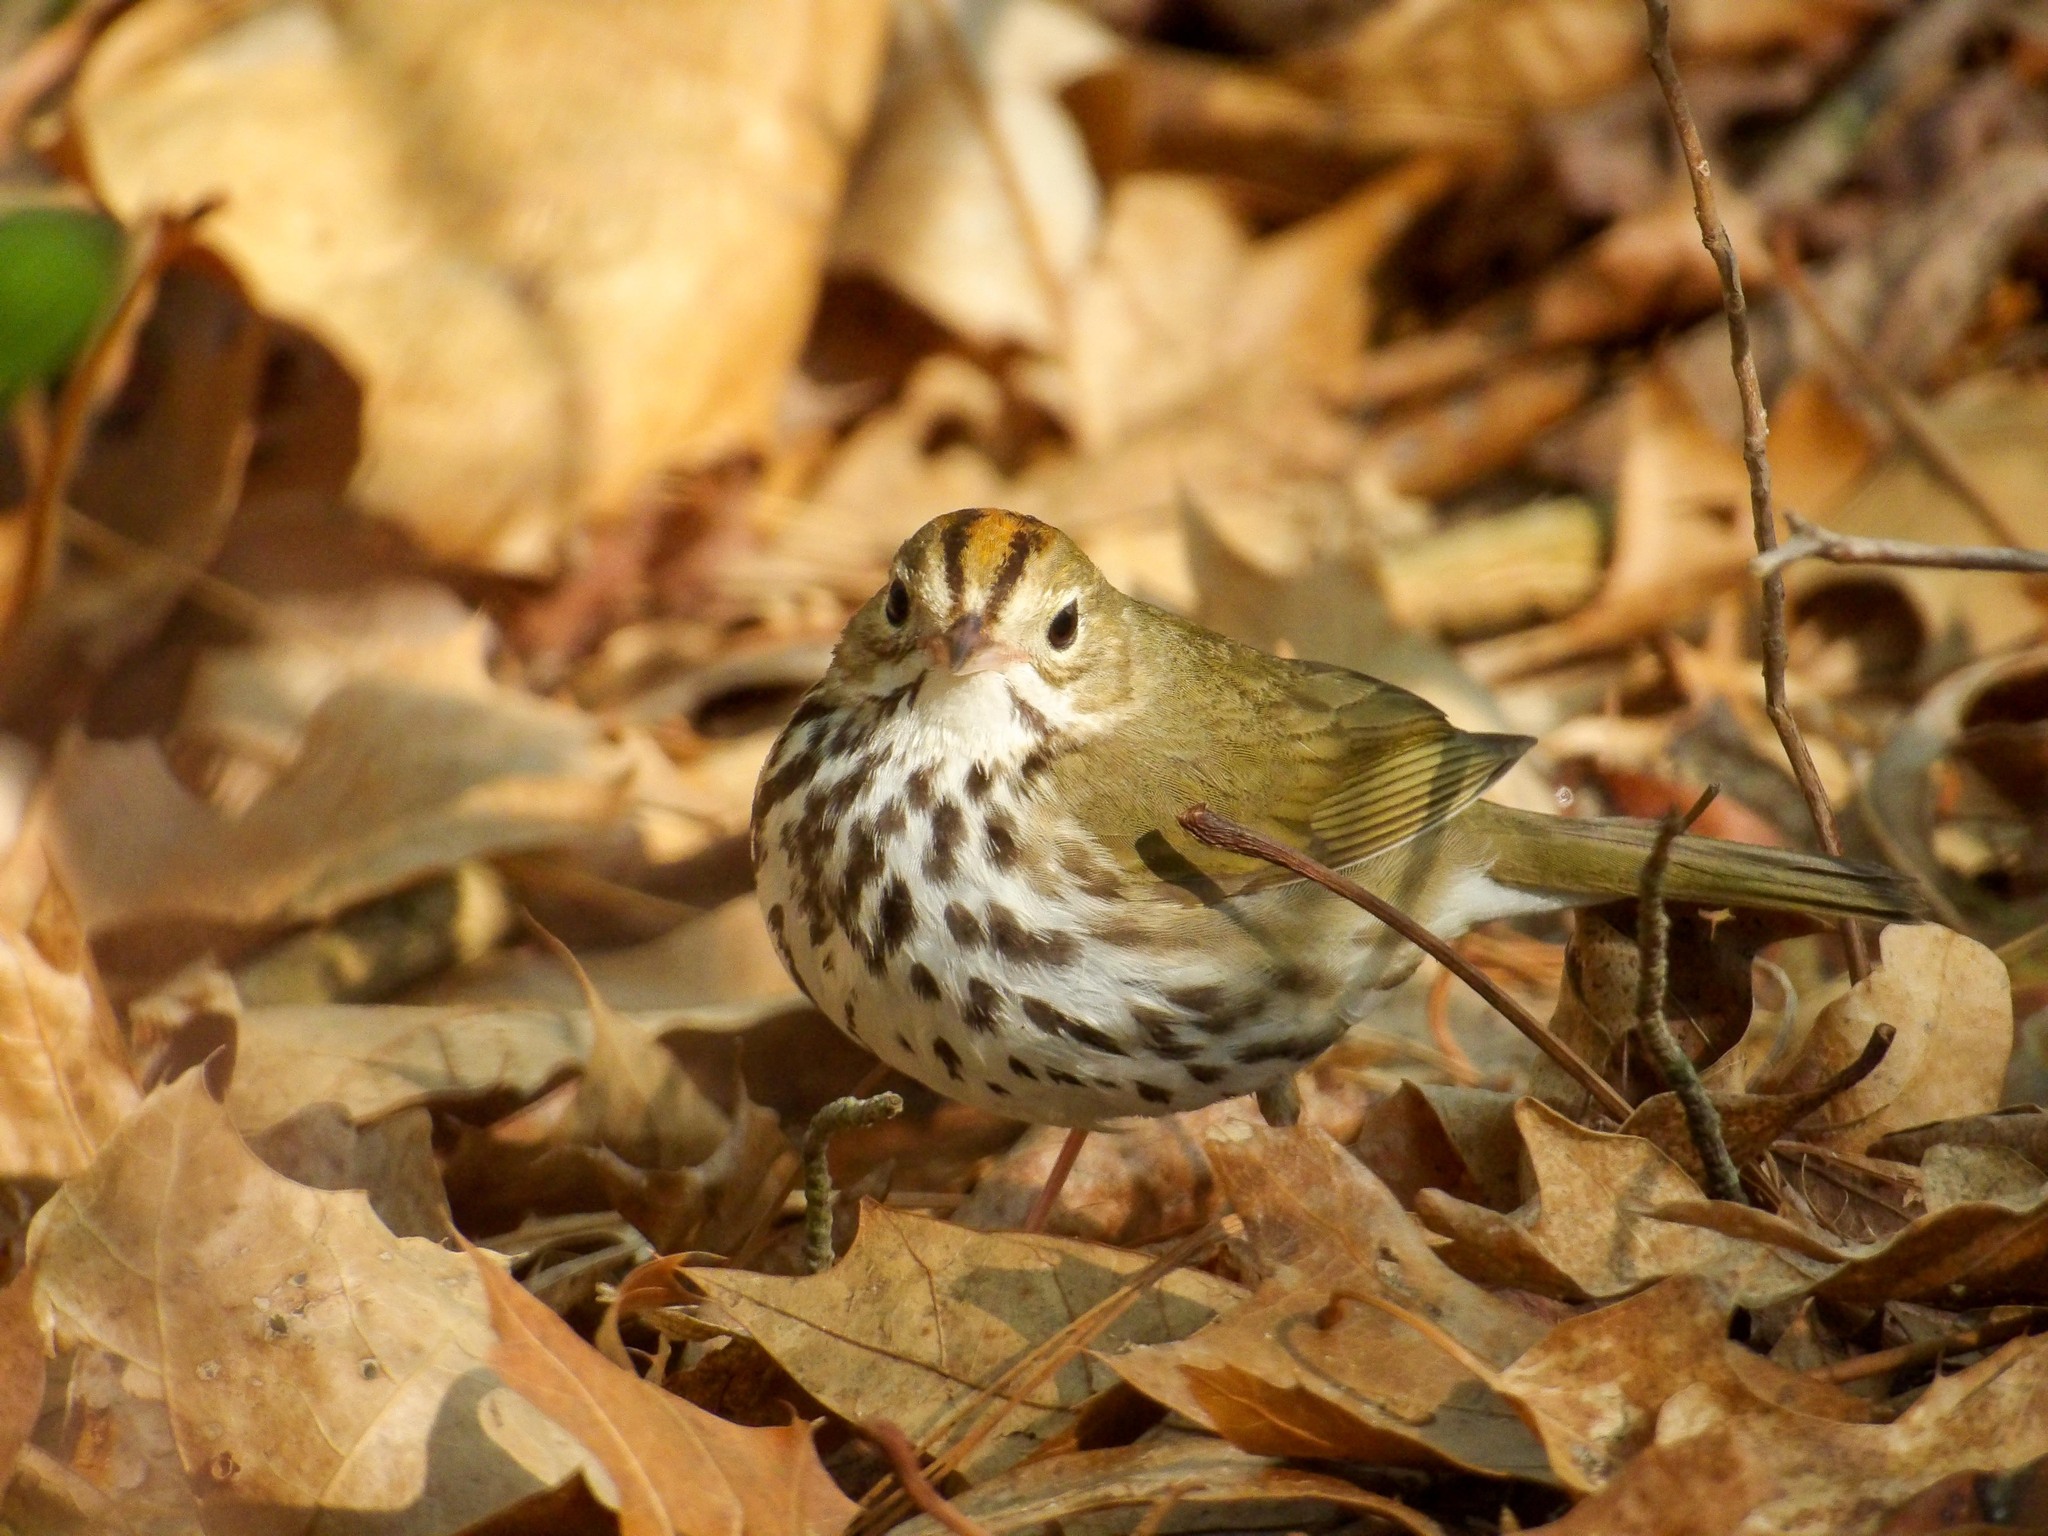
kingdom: Animalia
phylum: Chordata
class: Aves
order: Passeriformes
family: Parulidae
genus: Seiurus
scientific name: Seiurus aurocapilla
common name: Ovenbird
